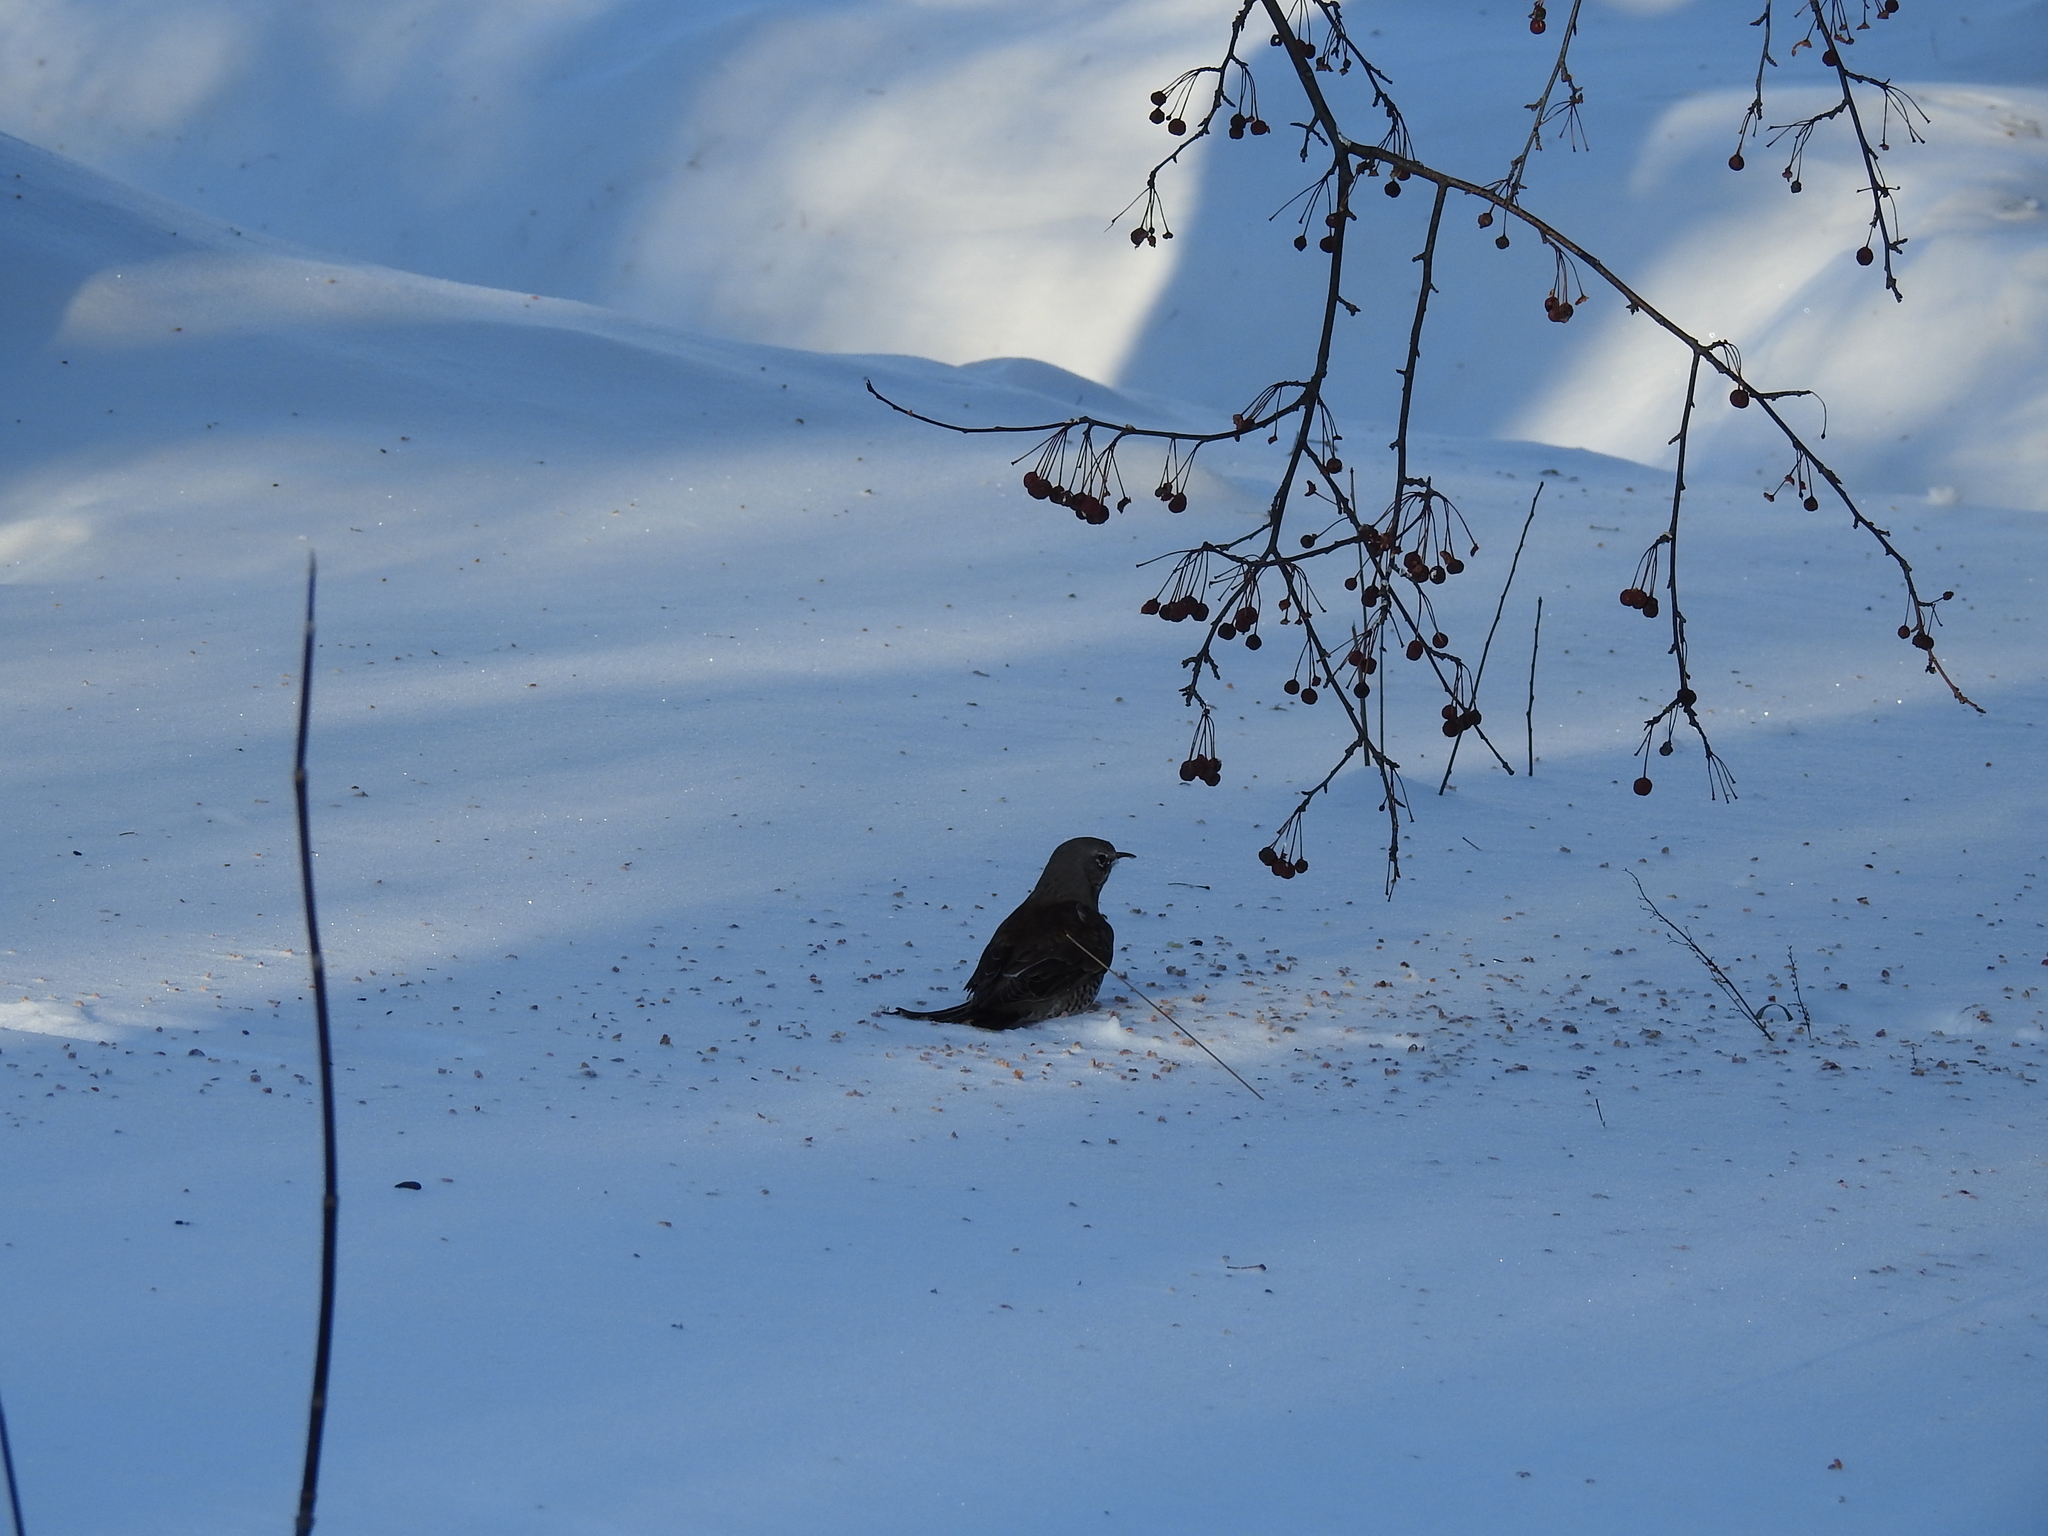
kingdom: Animalia
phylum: Chordata
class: Aves
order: Passeriformes
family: Turdidae
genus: Turdus
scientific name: Turdus pilaris
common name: Fieldfare
